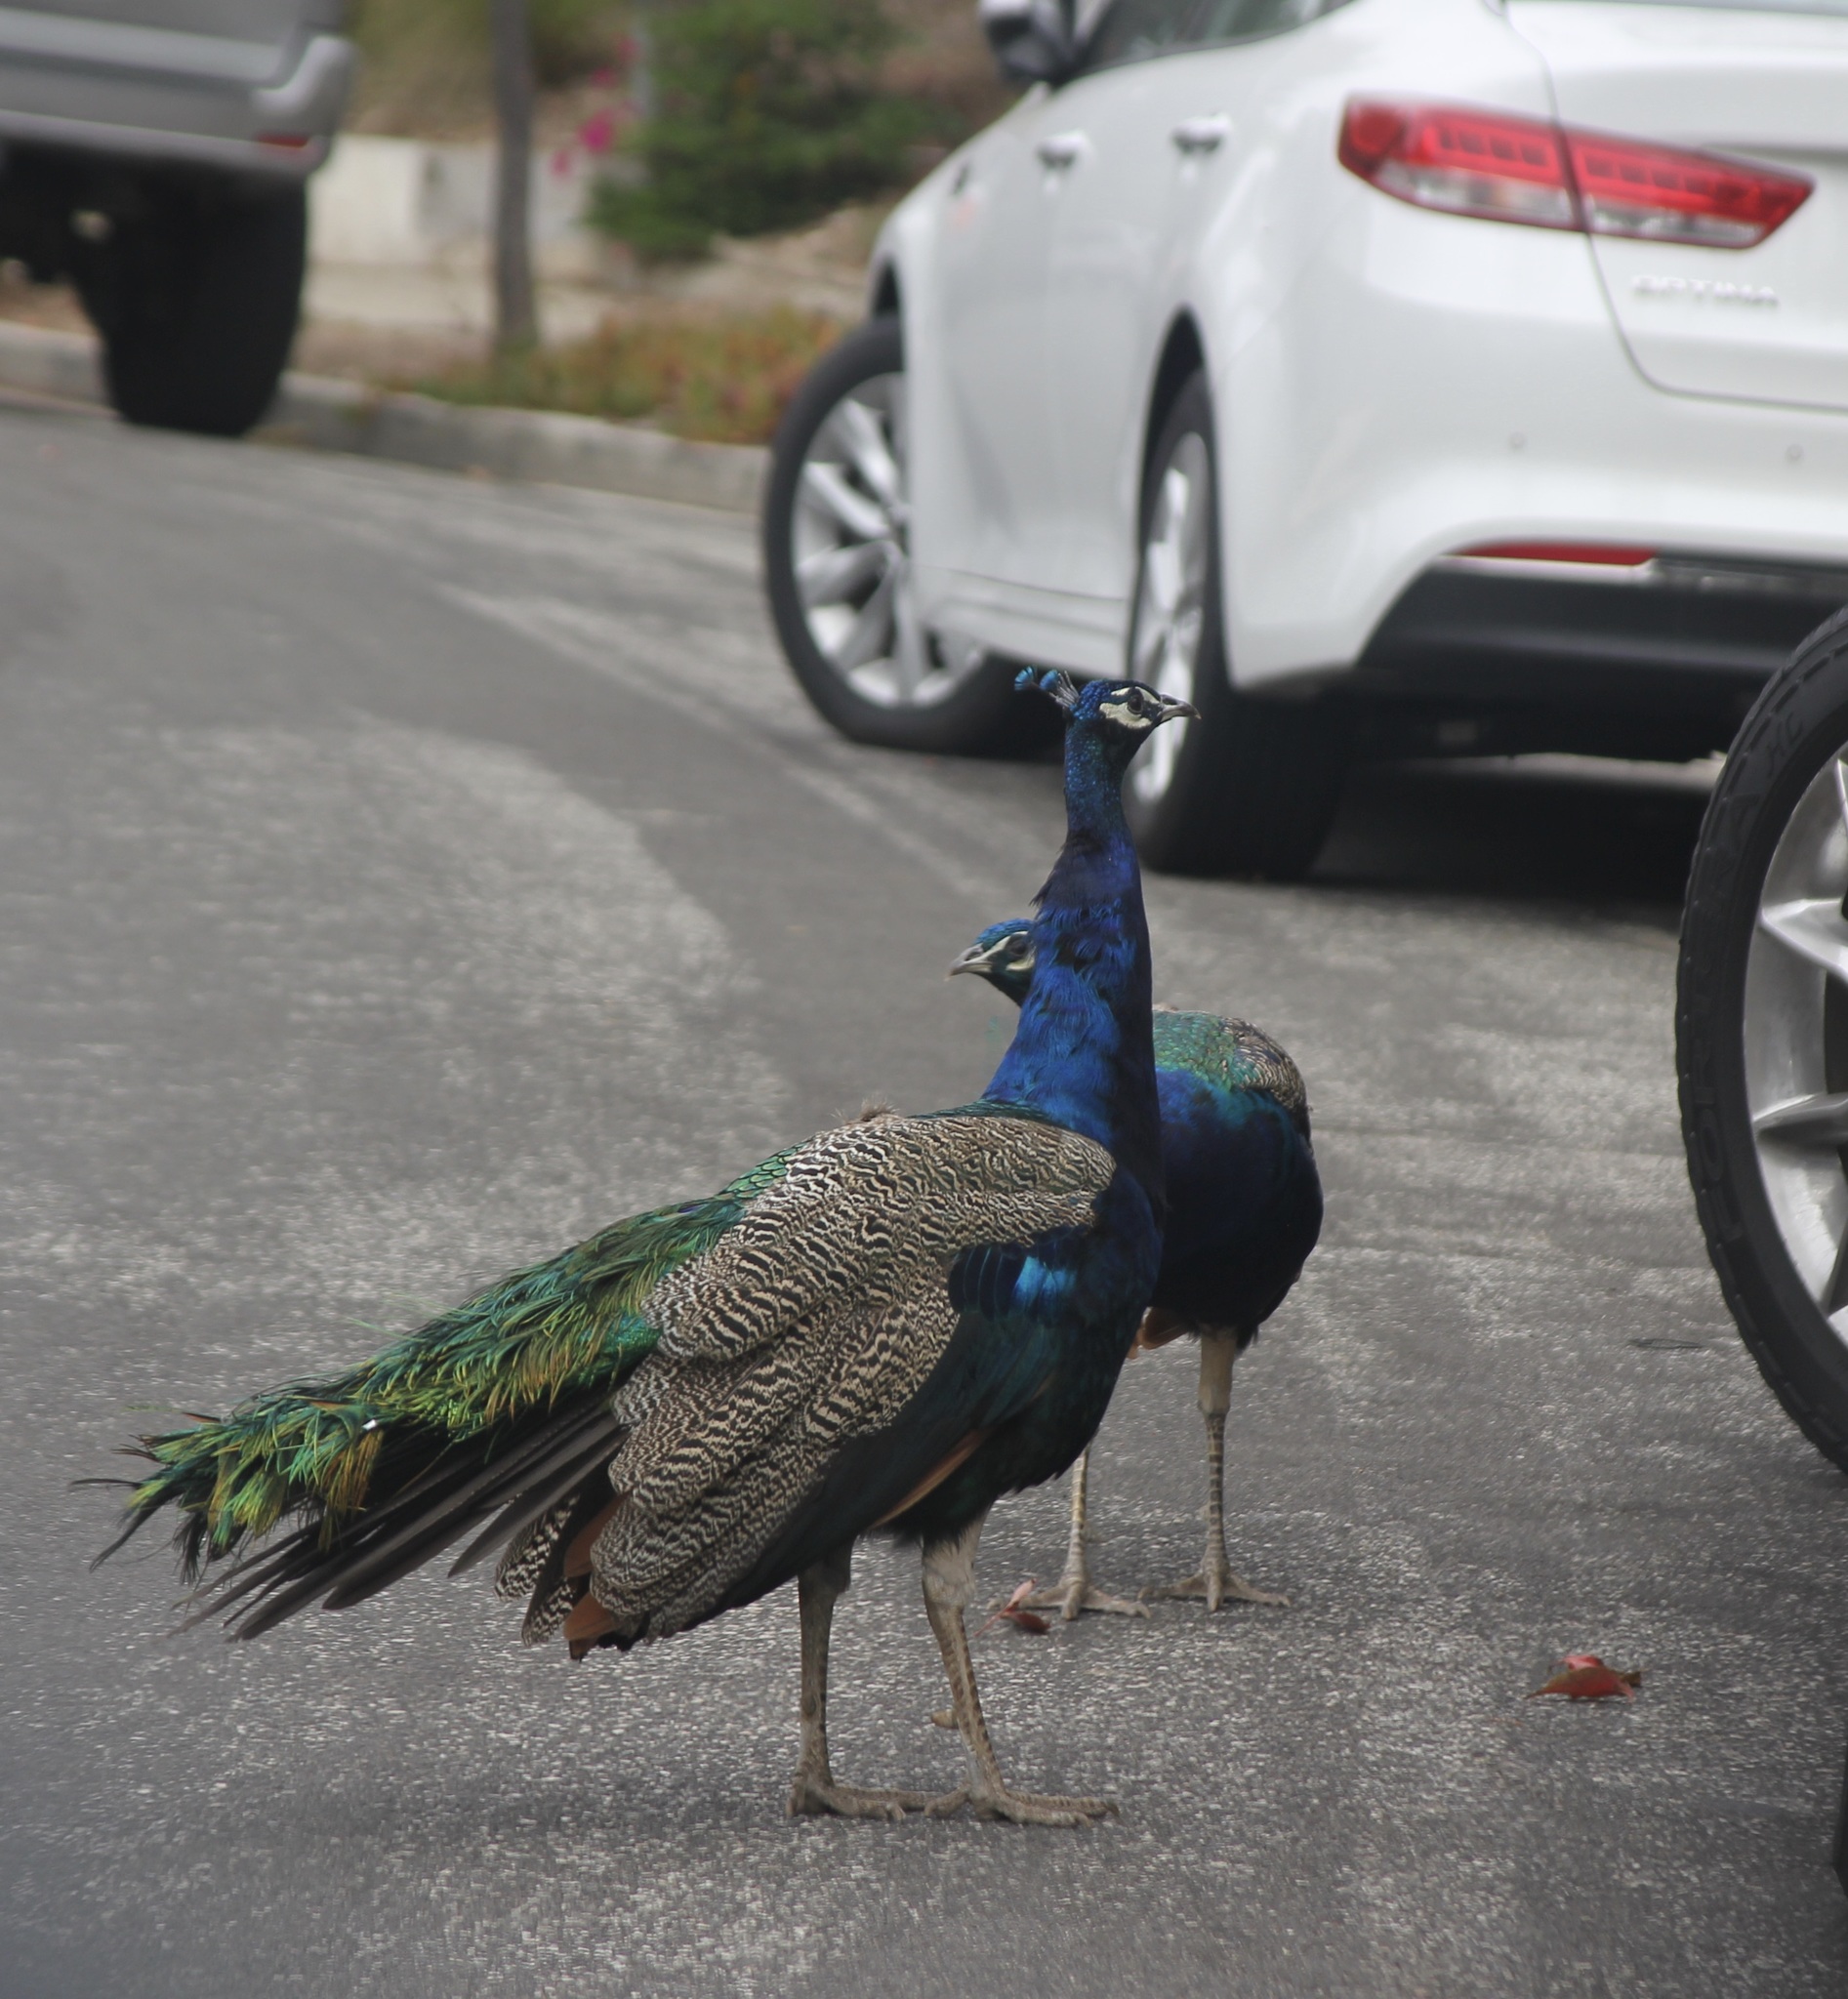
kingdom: Animalia
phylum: Chordata
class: Aves
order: Galliformes
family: Phasianidae
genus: Pavo
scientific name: Pavo cristatus
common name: Indian peafowl
